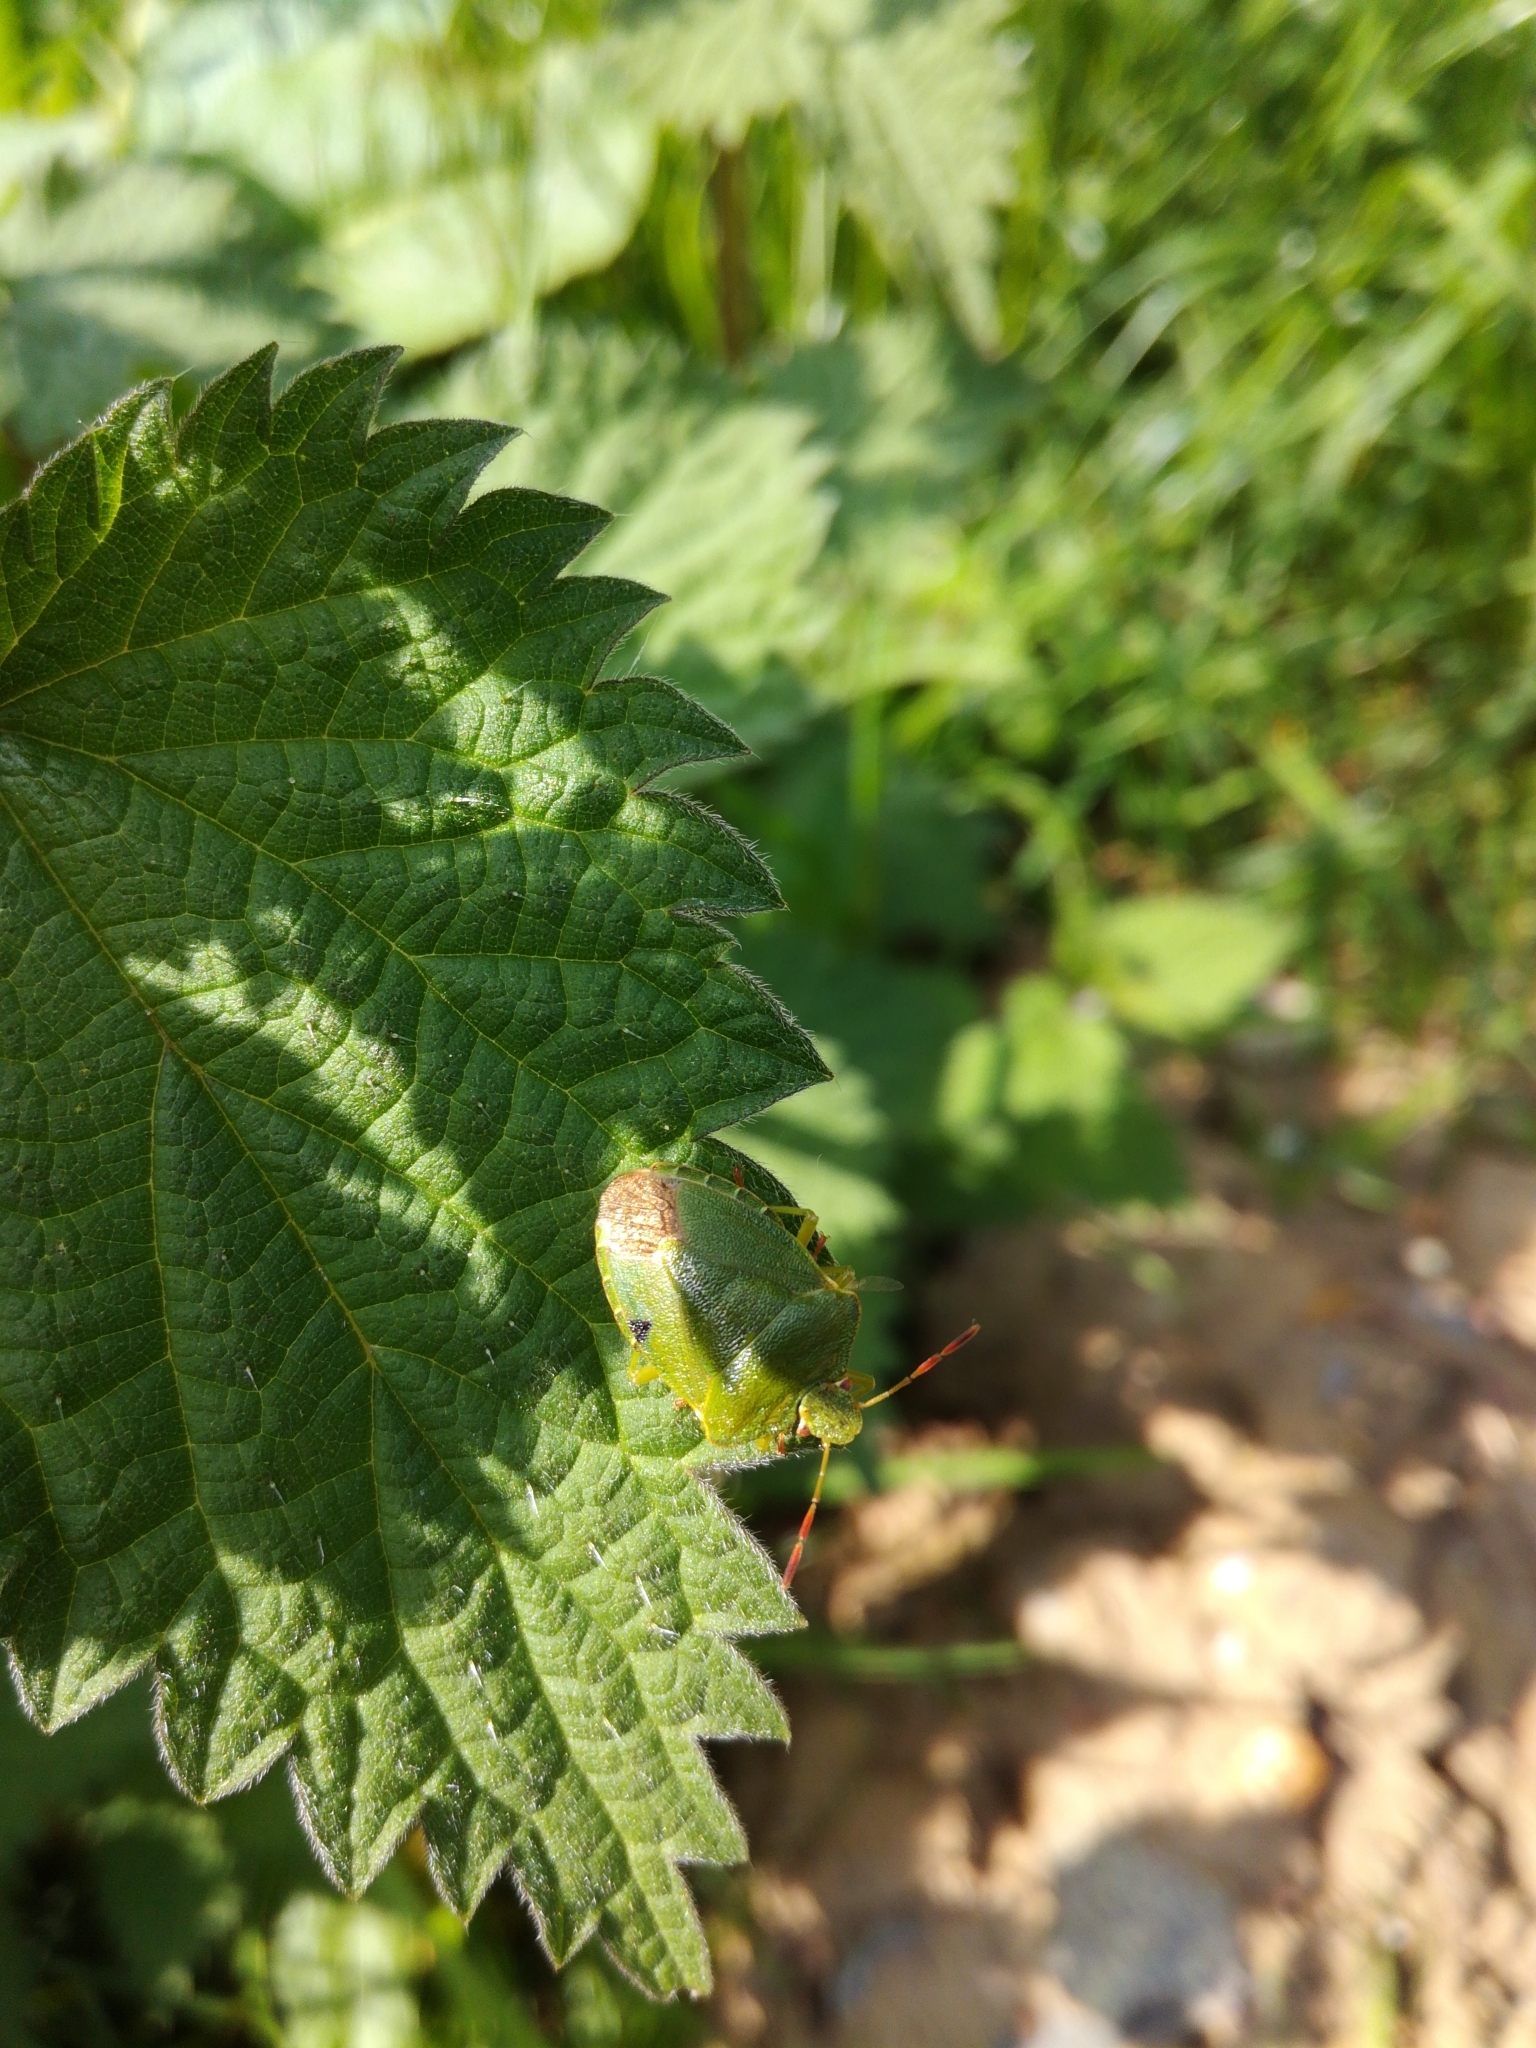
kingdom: Animalia
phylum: Arthropoda
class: Insecta
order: Hemiptera
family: Pentatomidae
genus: Palomena
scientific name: Palomena prasina
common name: Green shieldbug
